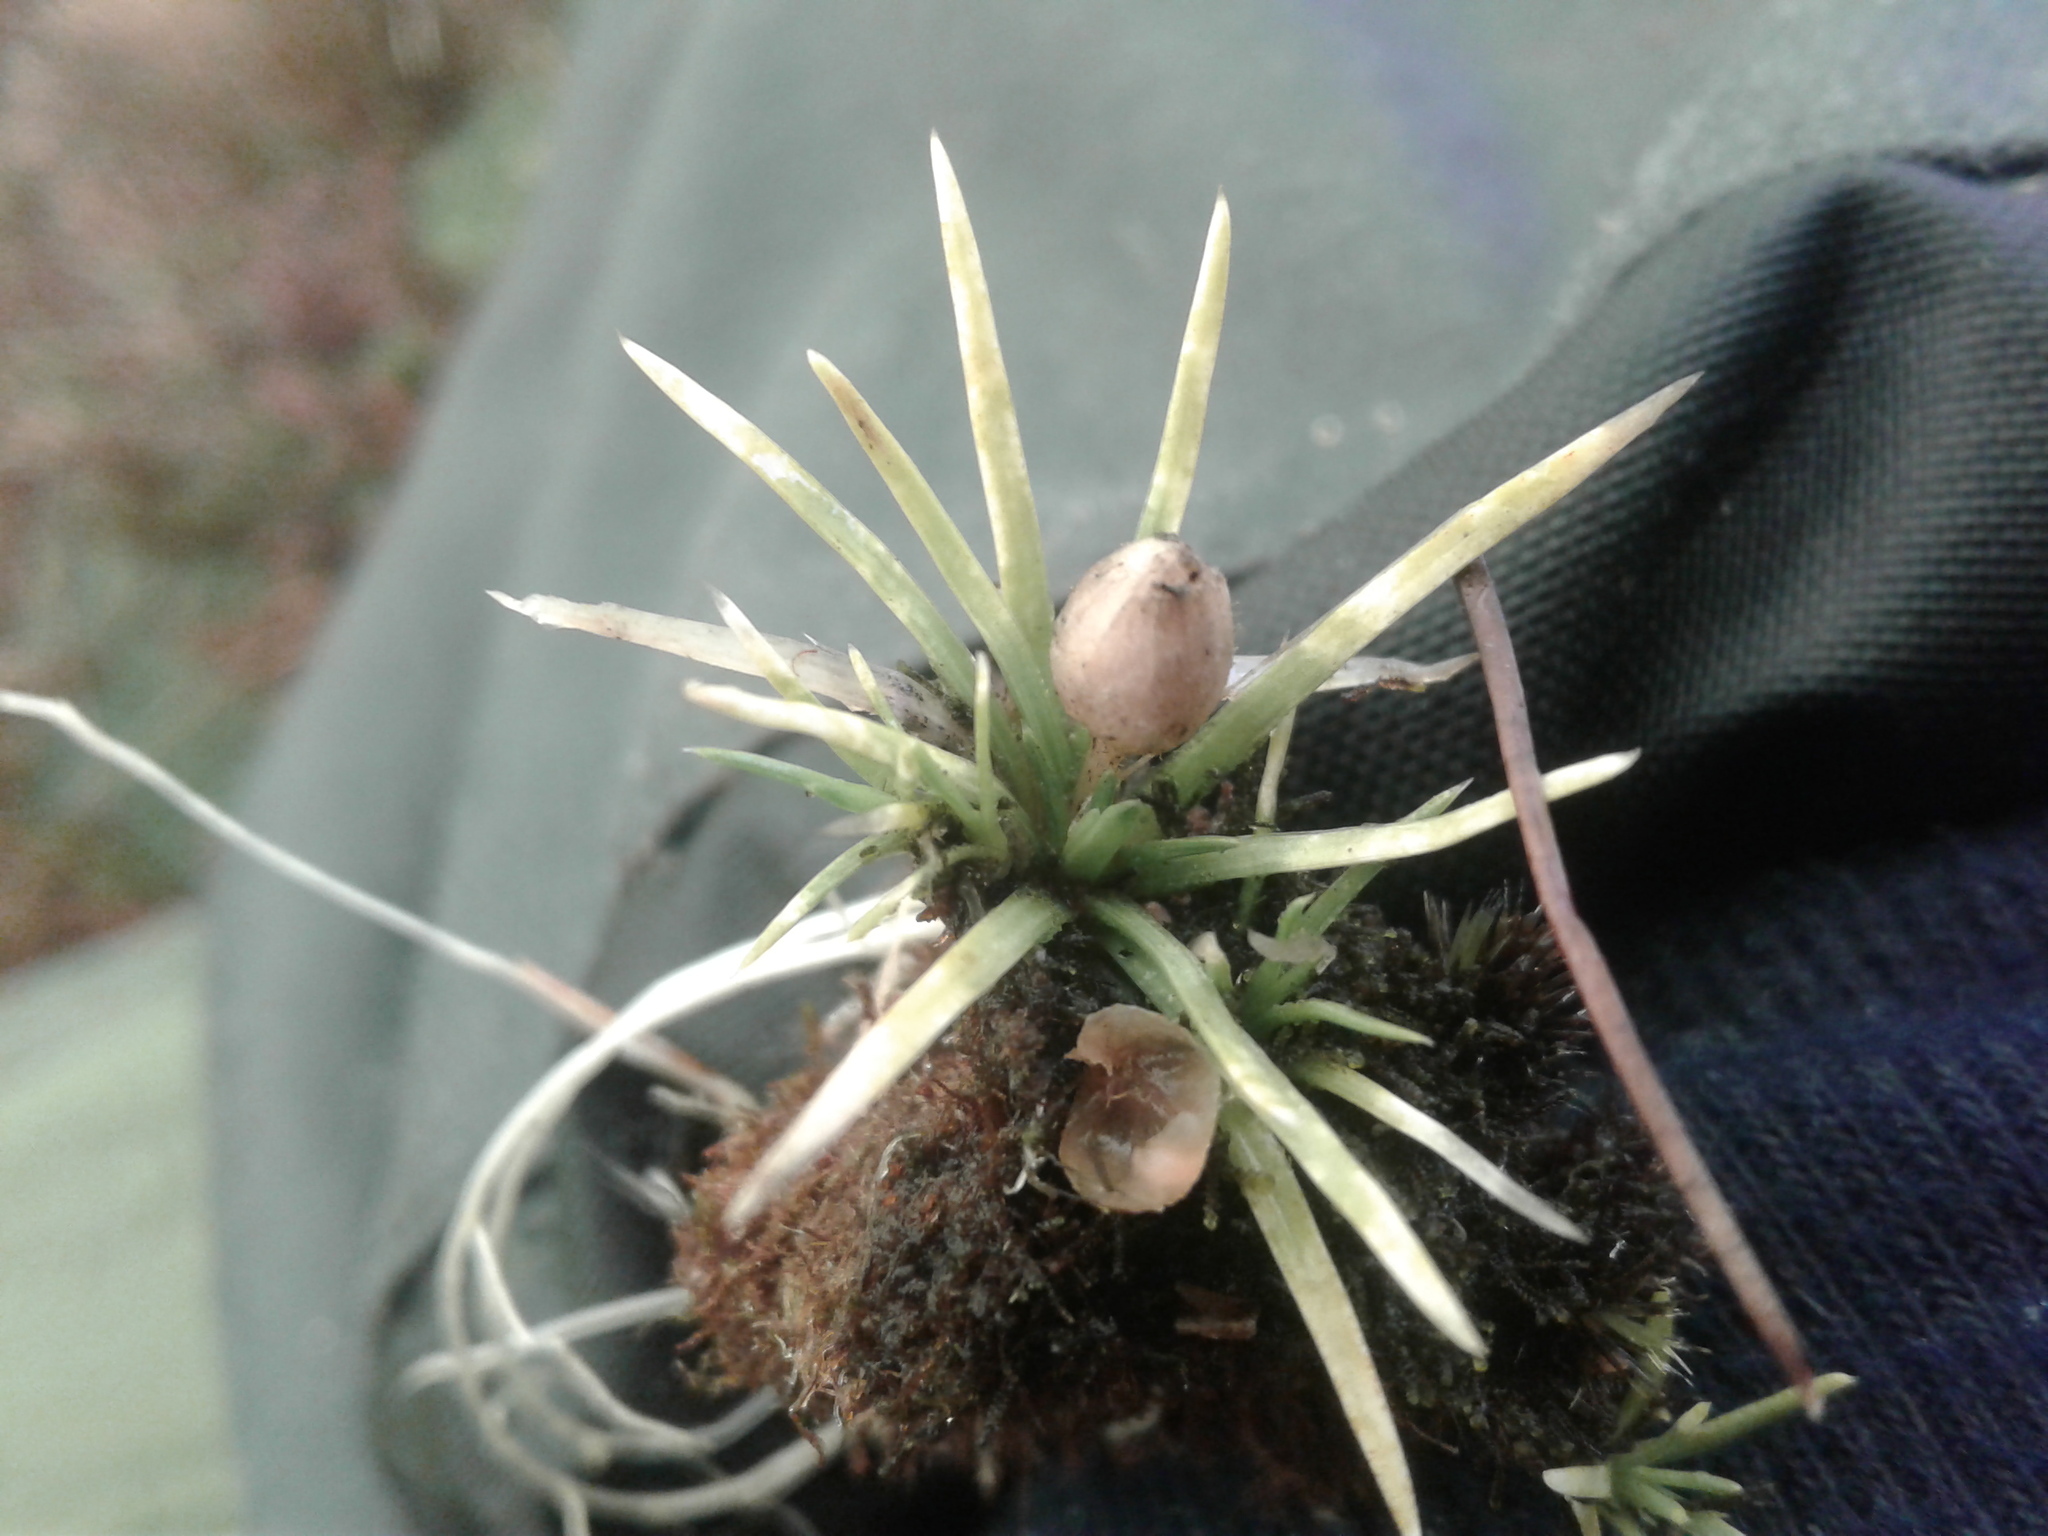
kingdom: Plantae
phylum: Tracheophyta
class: Magnoliopsida
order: Asterales
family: Stylidiaceae
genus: Oreostylidium
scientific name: Oreostylidium subulatum
